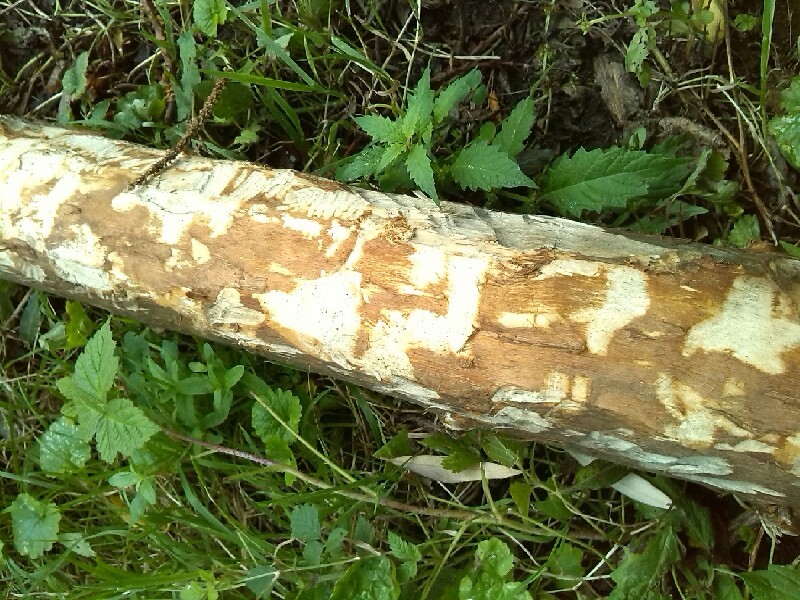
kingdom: Animalia
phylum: Chordata
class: Mammalia
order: Rodentia
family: Castoridae
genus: Castor
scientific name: Castor fiber
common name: Eurasian beaver
